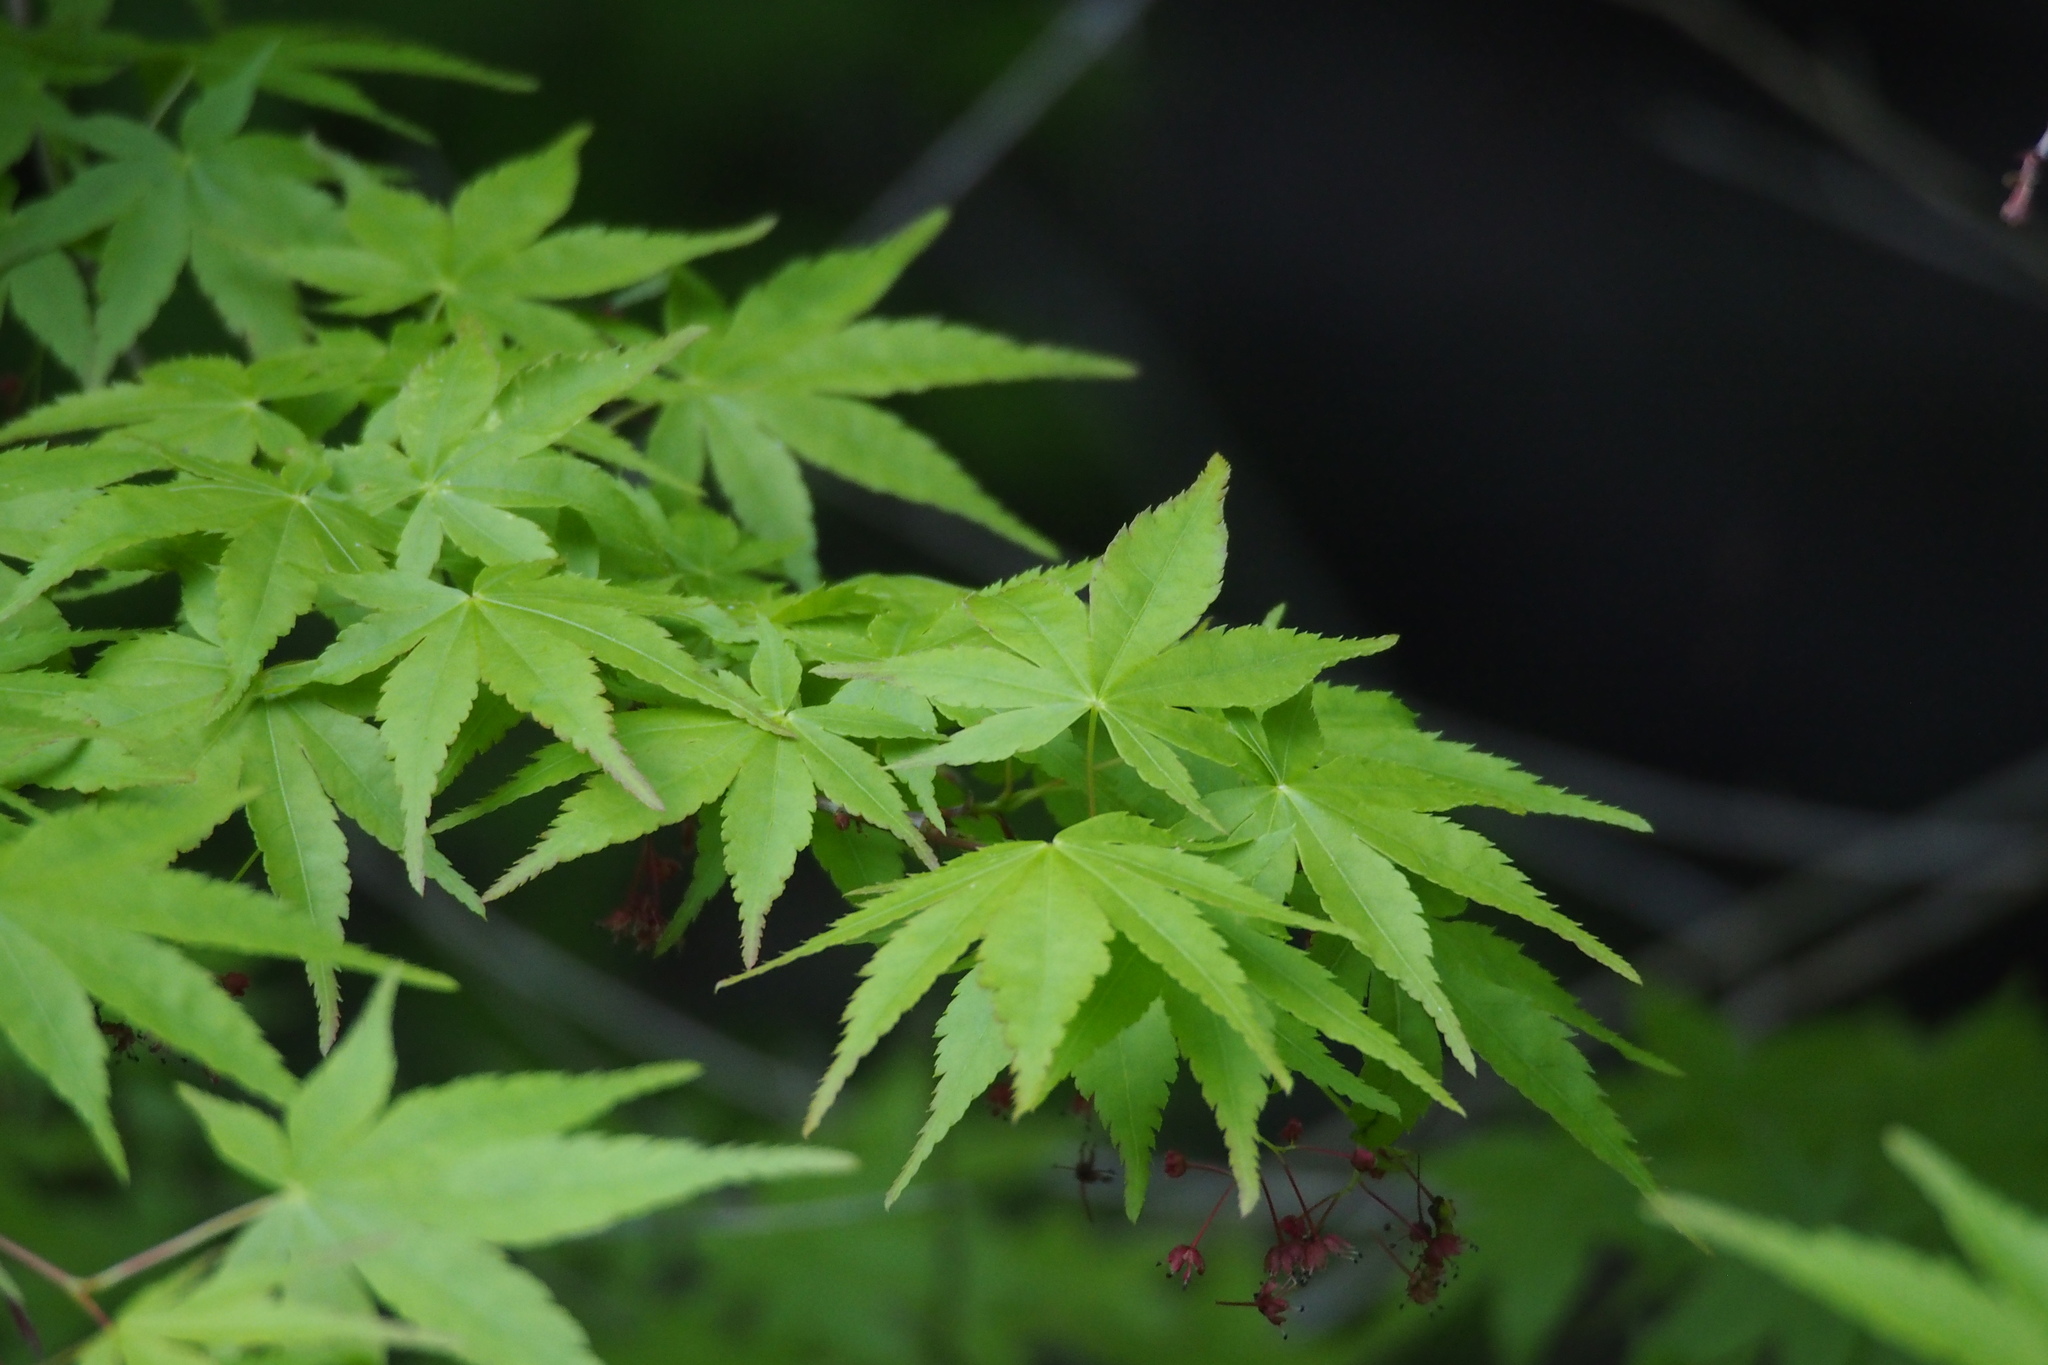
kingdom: Plantae
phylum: Tracheophyta
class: Magnoliopsida
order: Sapindales
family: Sapindaceae
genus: Acer
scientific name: Acer palmatum
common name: Japanese maple
